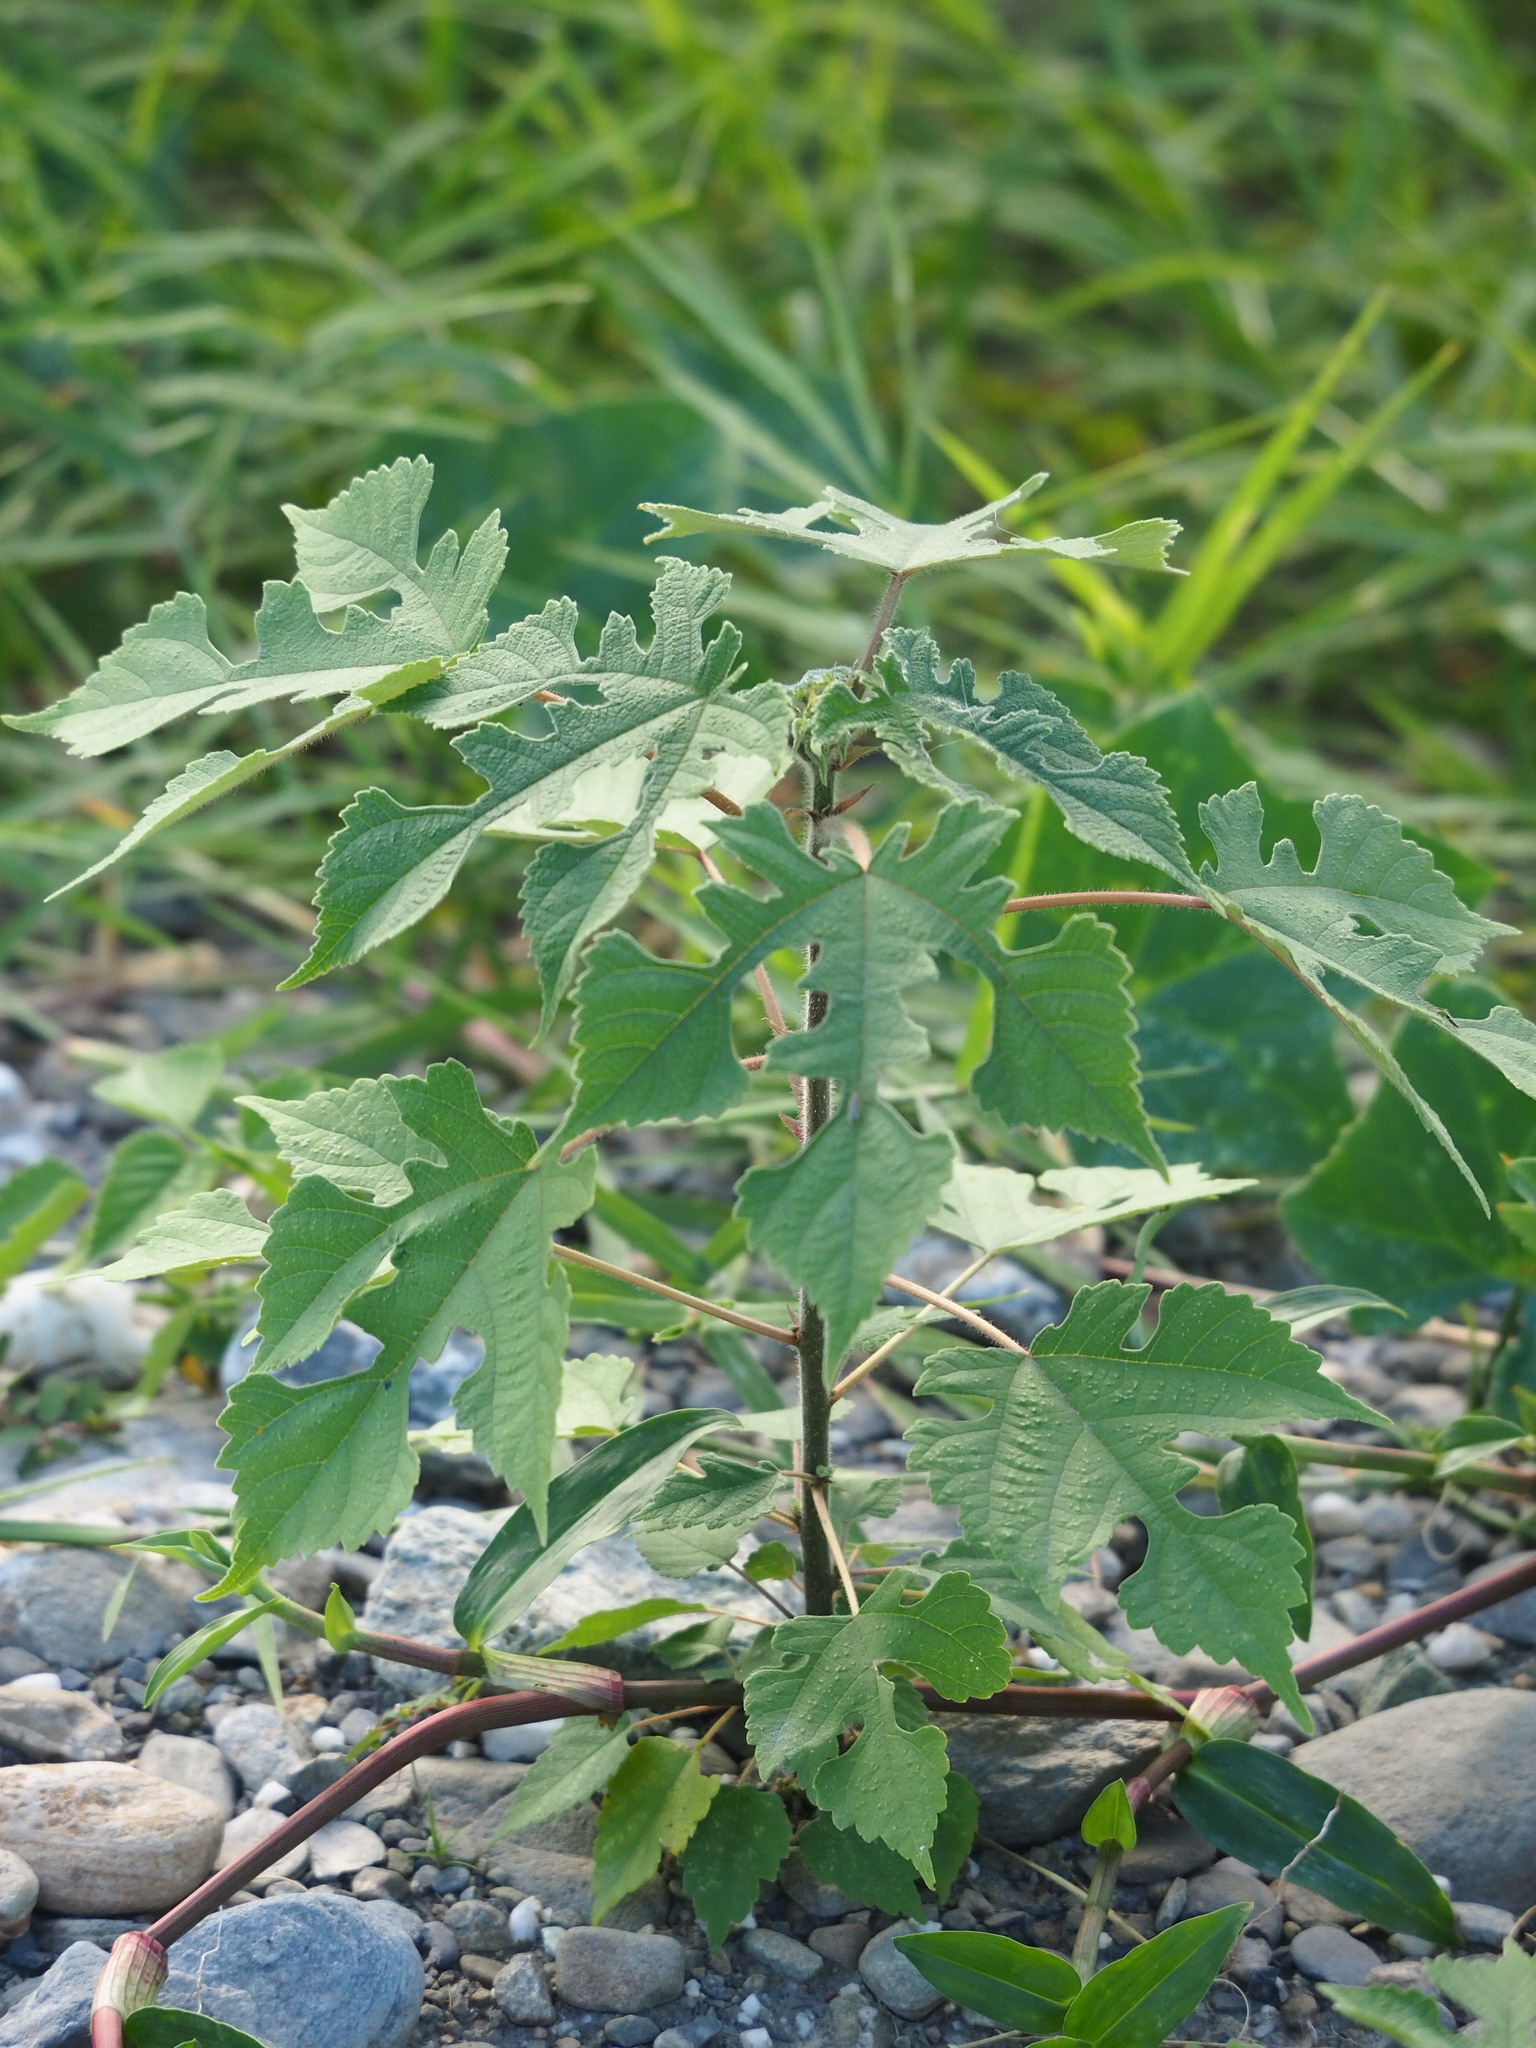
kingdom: Plantae
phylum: Tracheophyta
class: Magnoliopsida
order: Rosales
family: Moraceae
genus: Broussonetia
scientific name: Broussonetia papyrifera
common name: Paper mulberry
